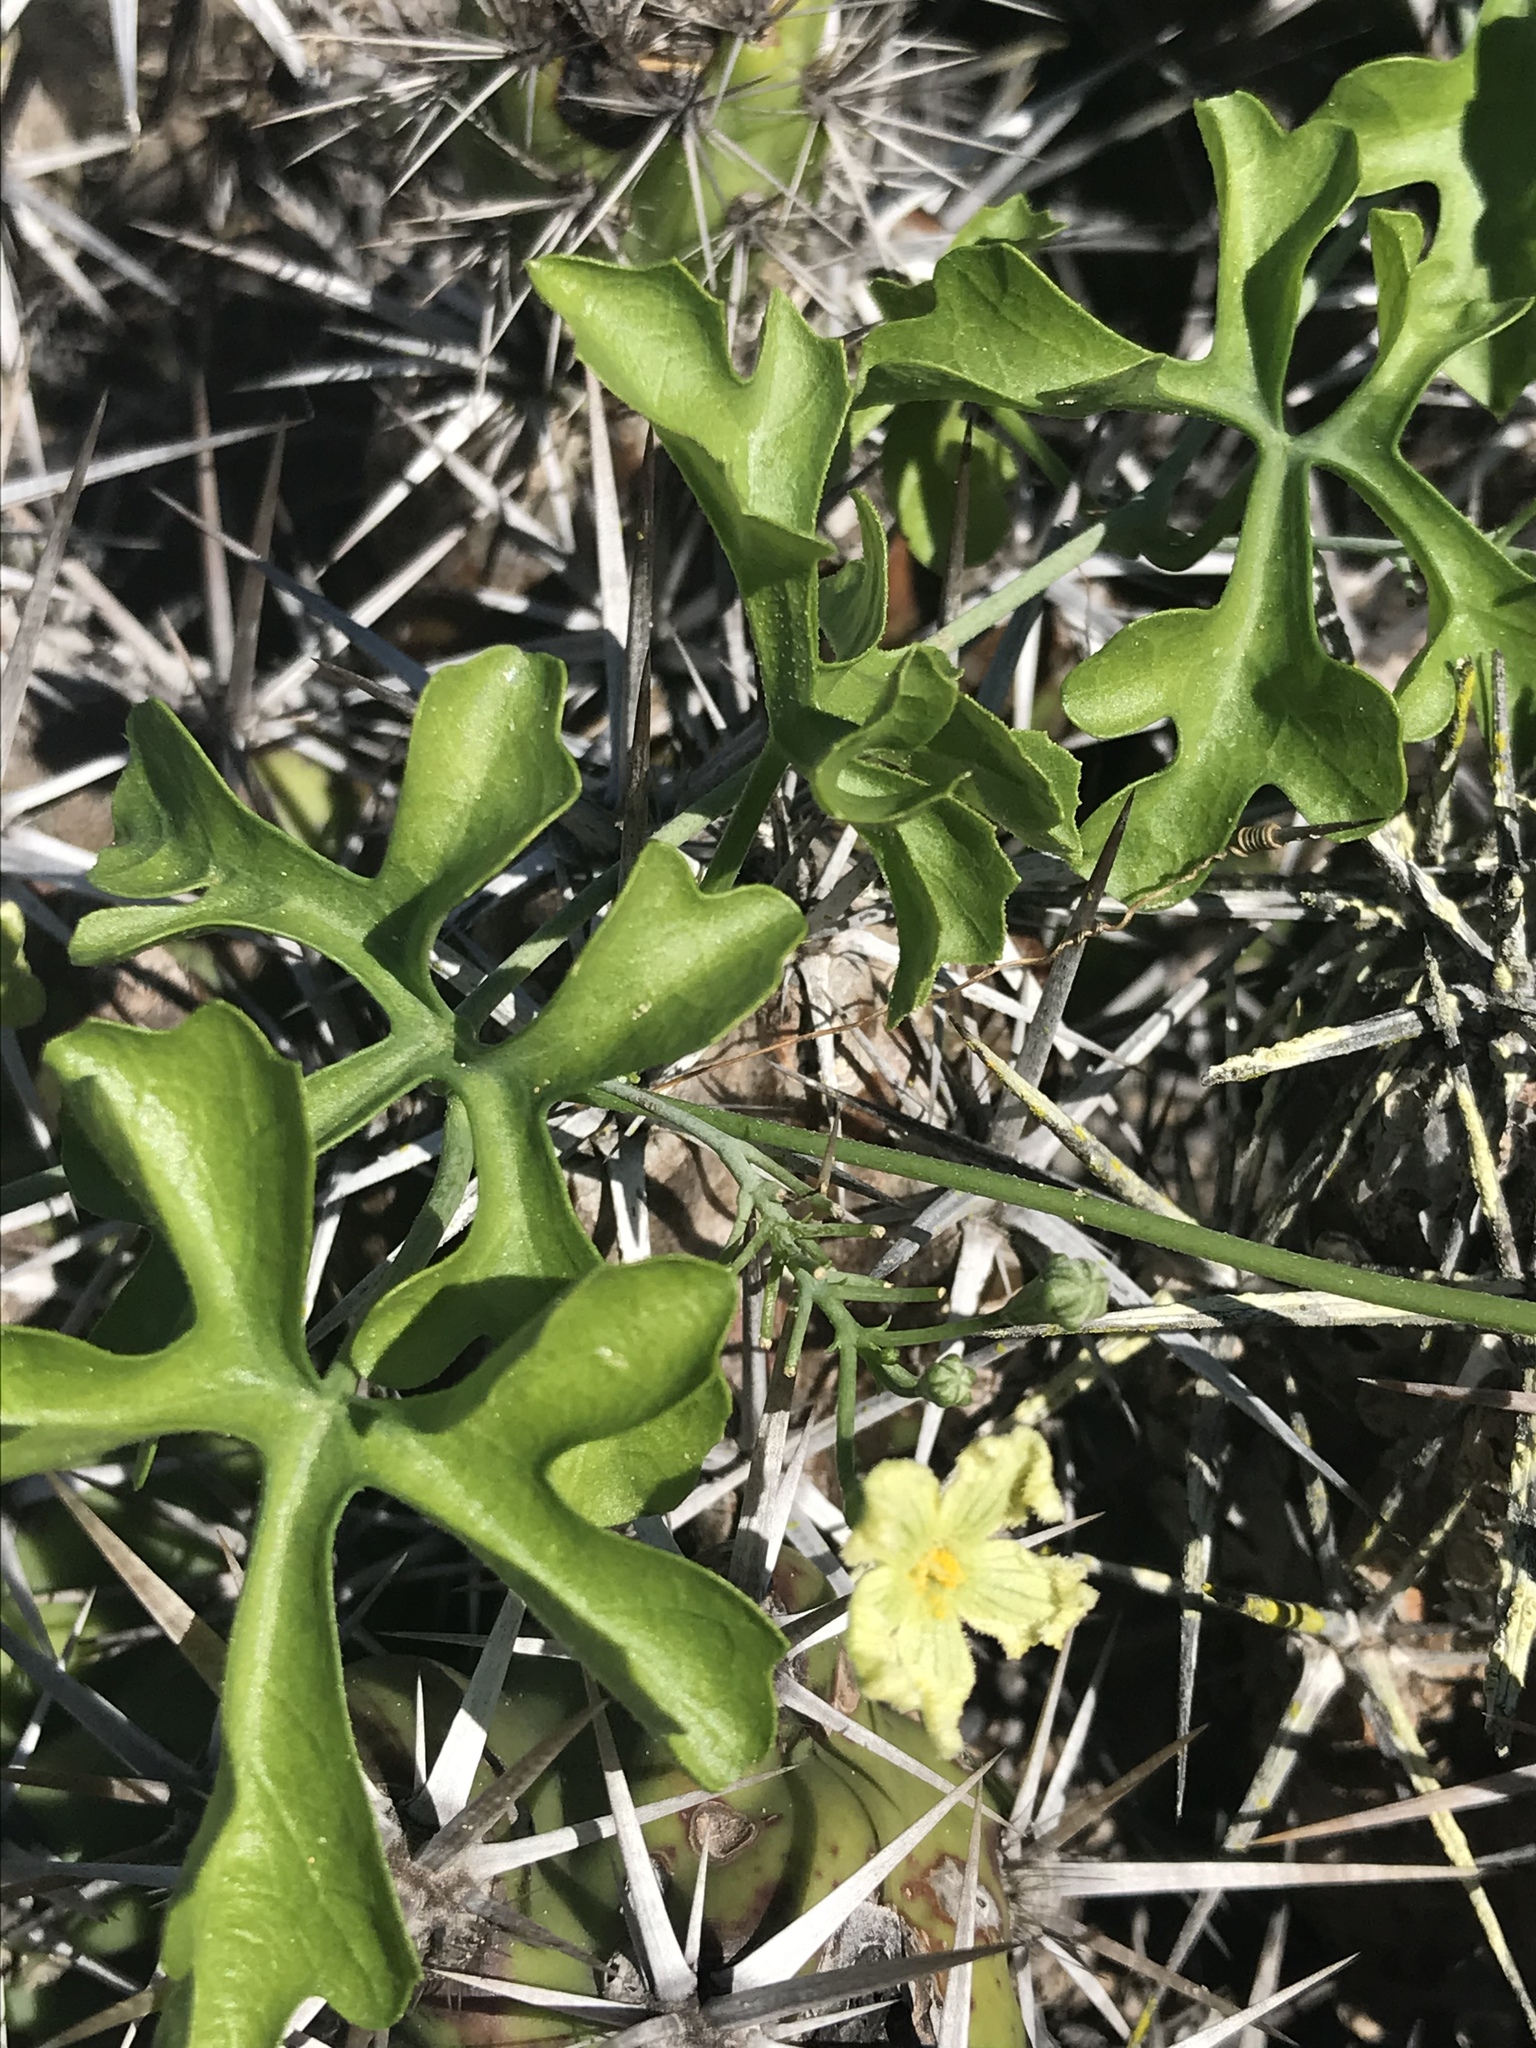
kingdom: Plantae
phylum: Tracheophyta
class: Magnoliopsida
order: Cucurbitales
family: Cucurbitaceae
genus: Ibervillea
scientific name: Ibervillea sonorae
